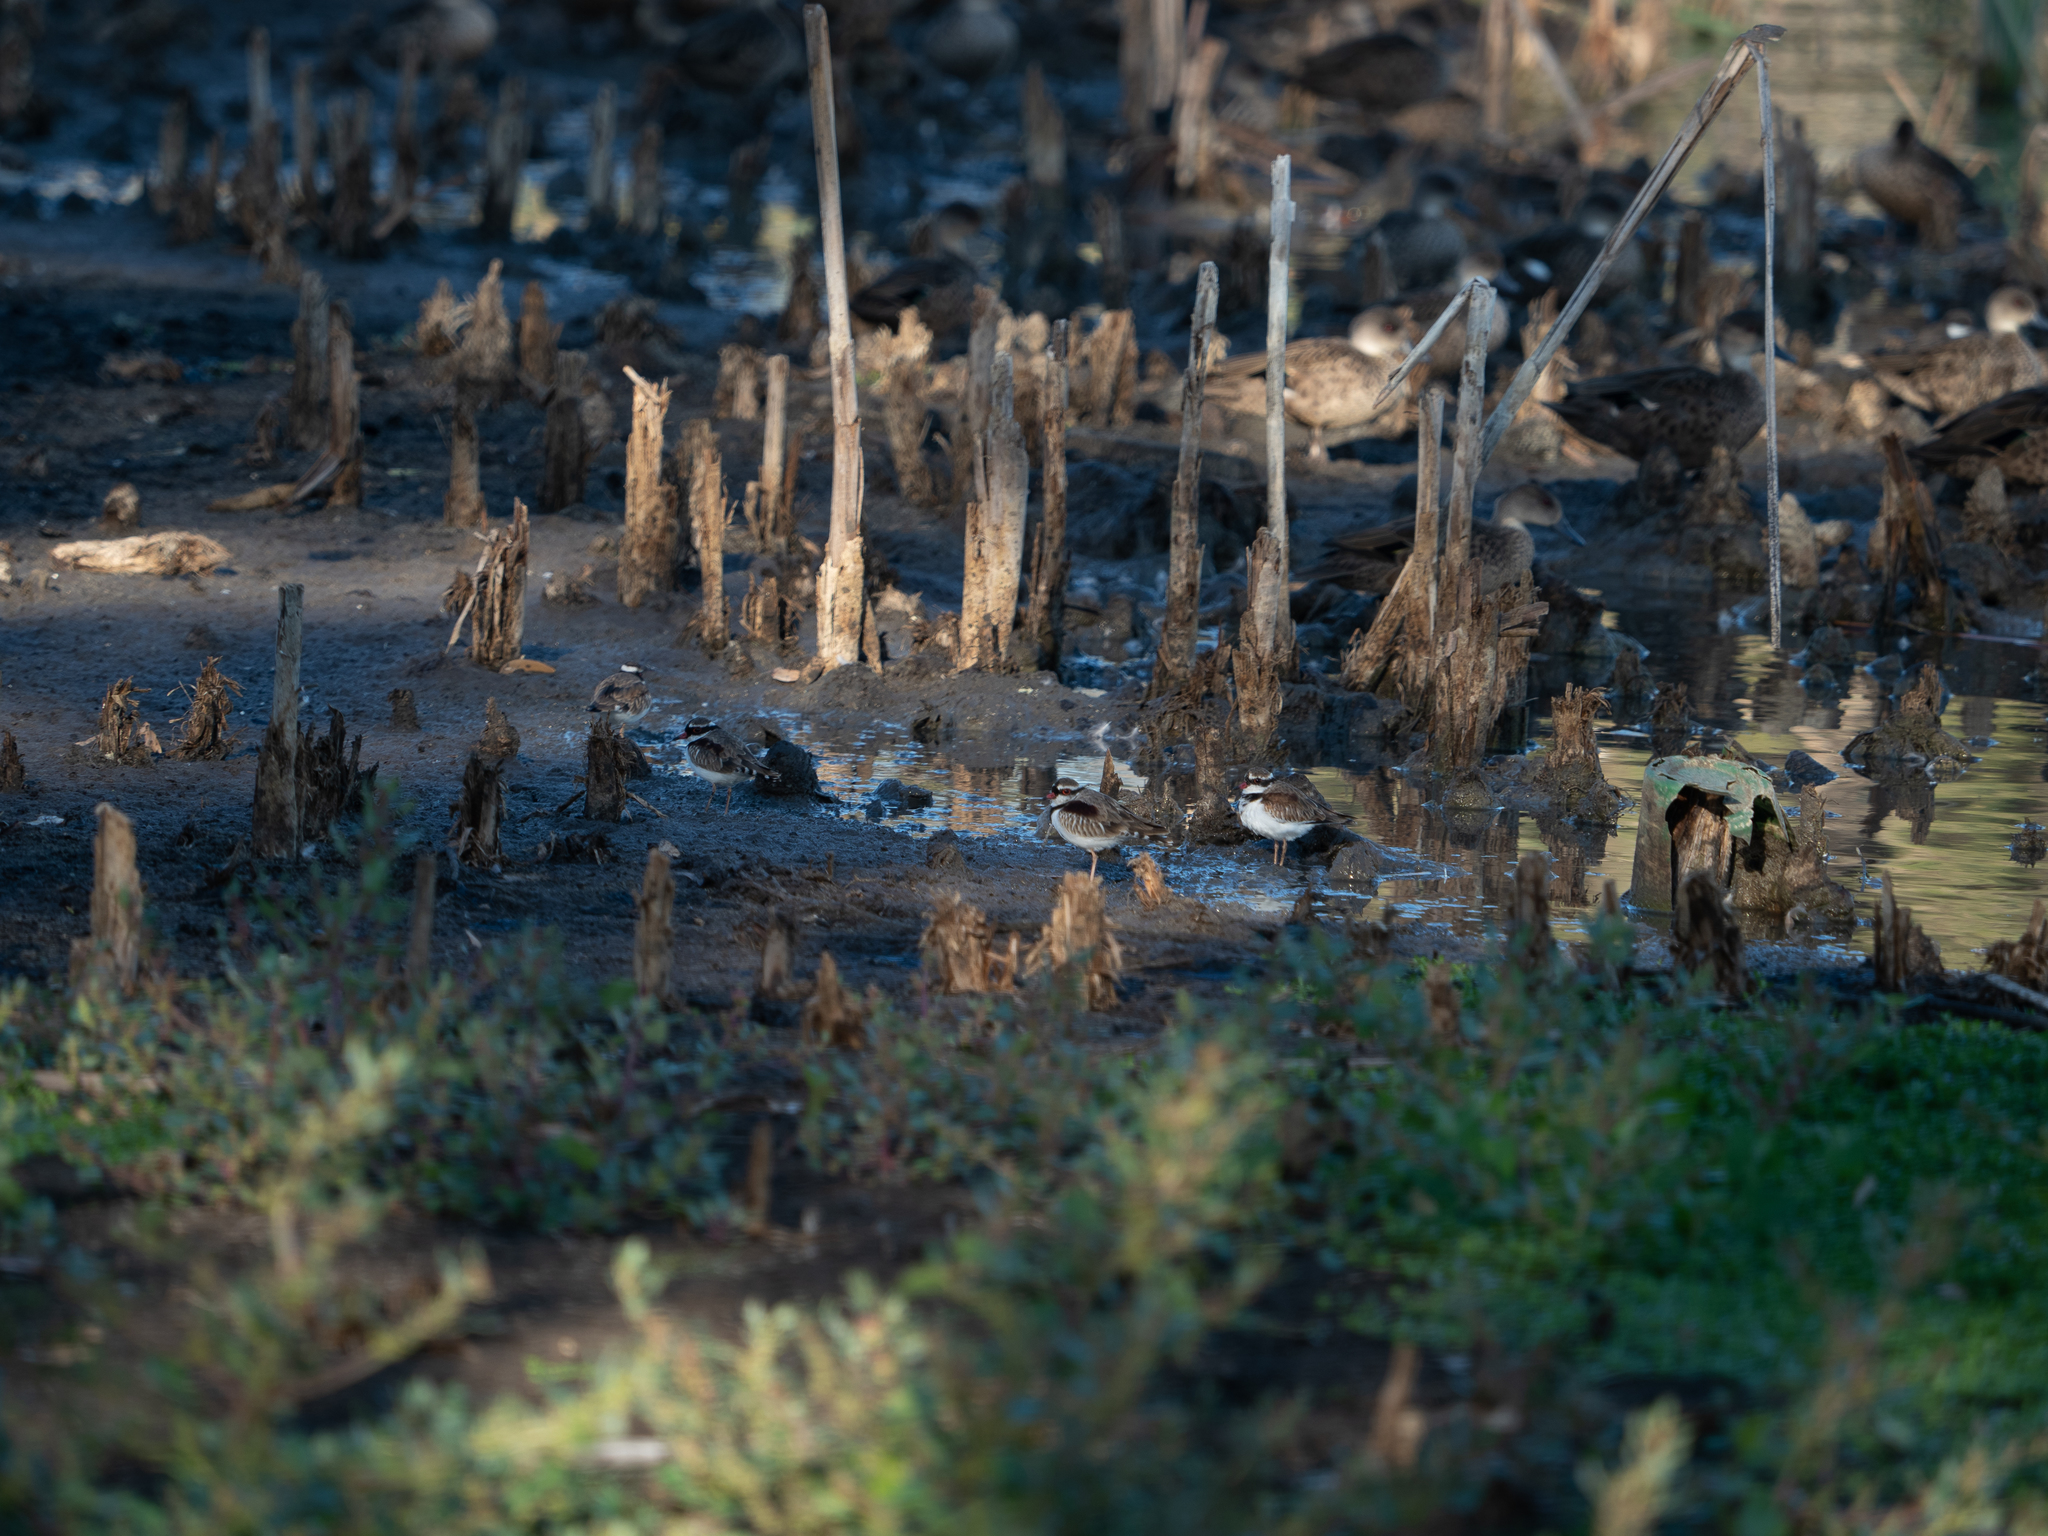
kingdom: Animalia
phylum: Chordata
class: Aves
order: Charadriiformes
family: Charadriidae
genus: Elseyornis
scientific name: Elseyornis melanops
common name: Black-fronted dotterel
